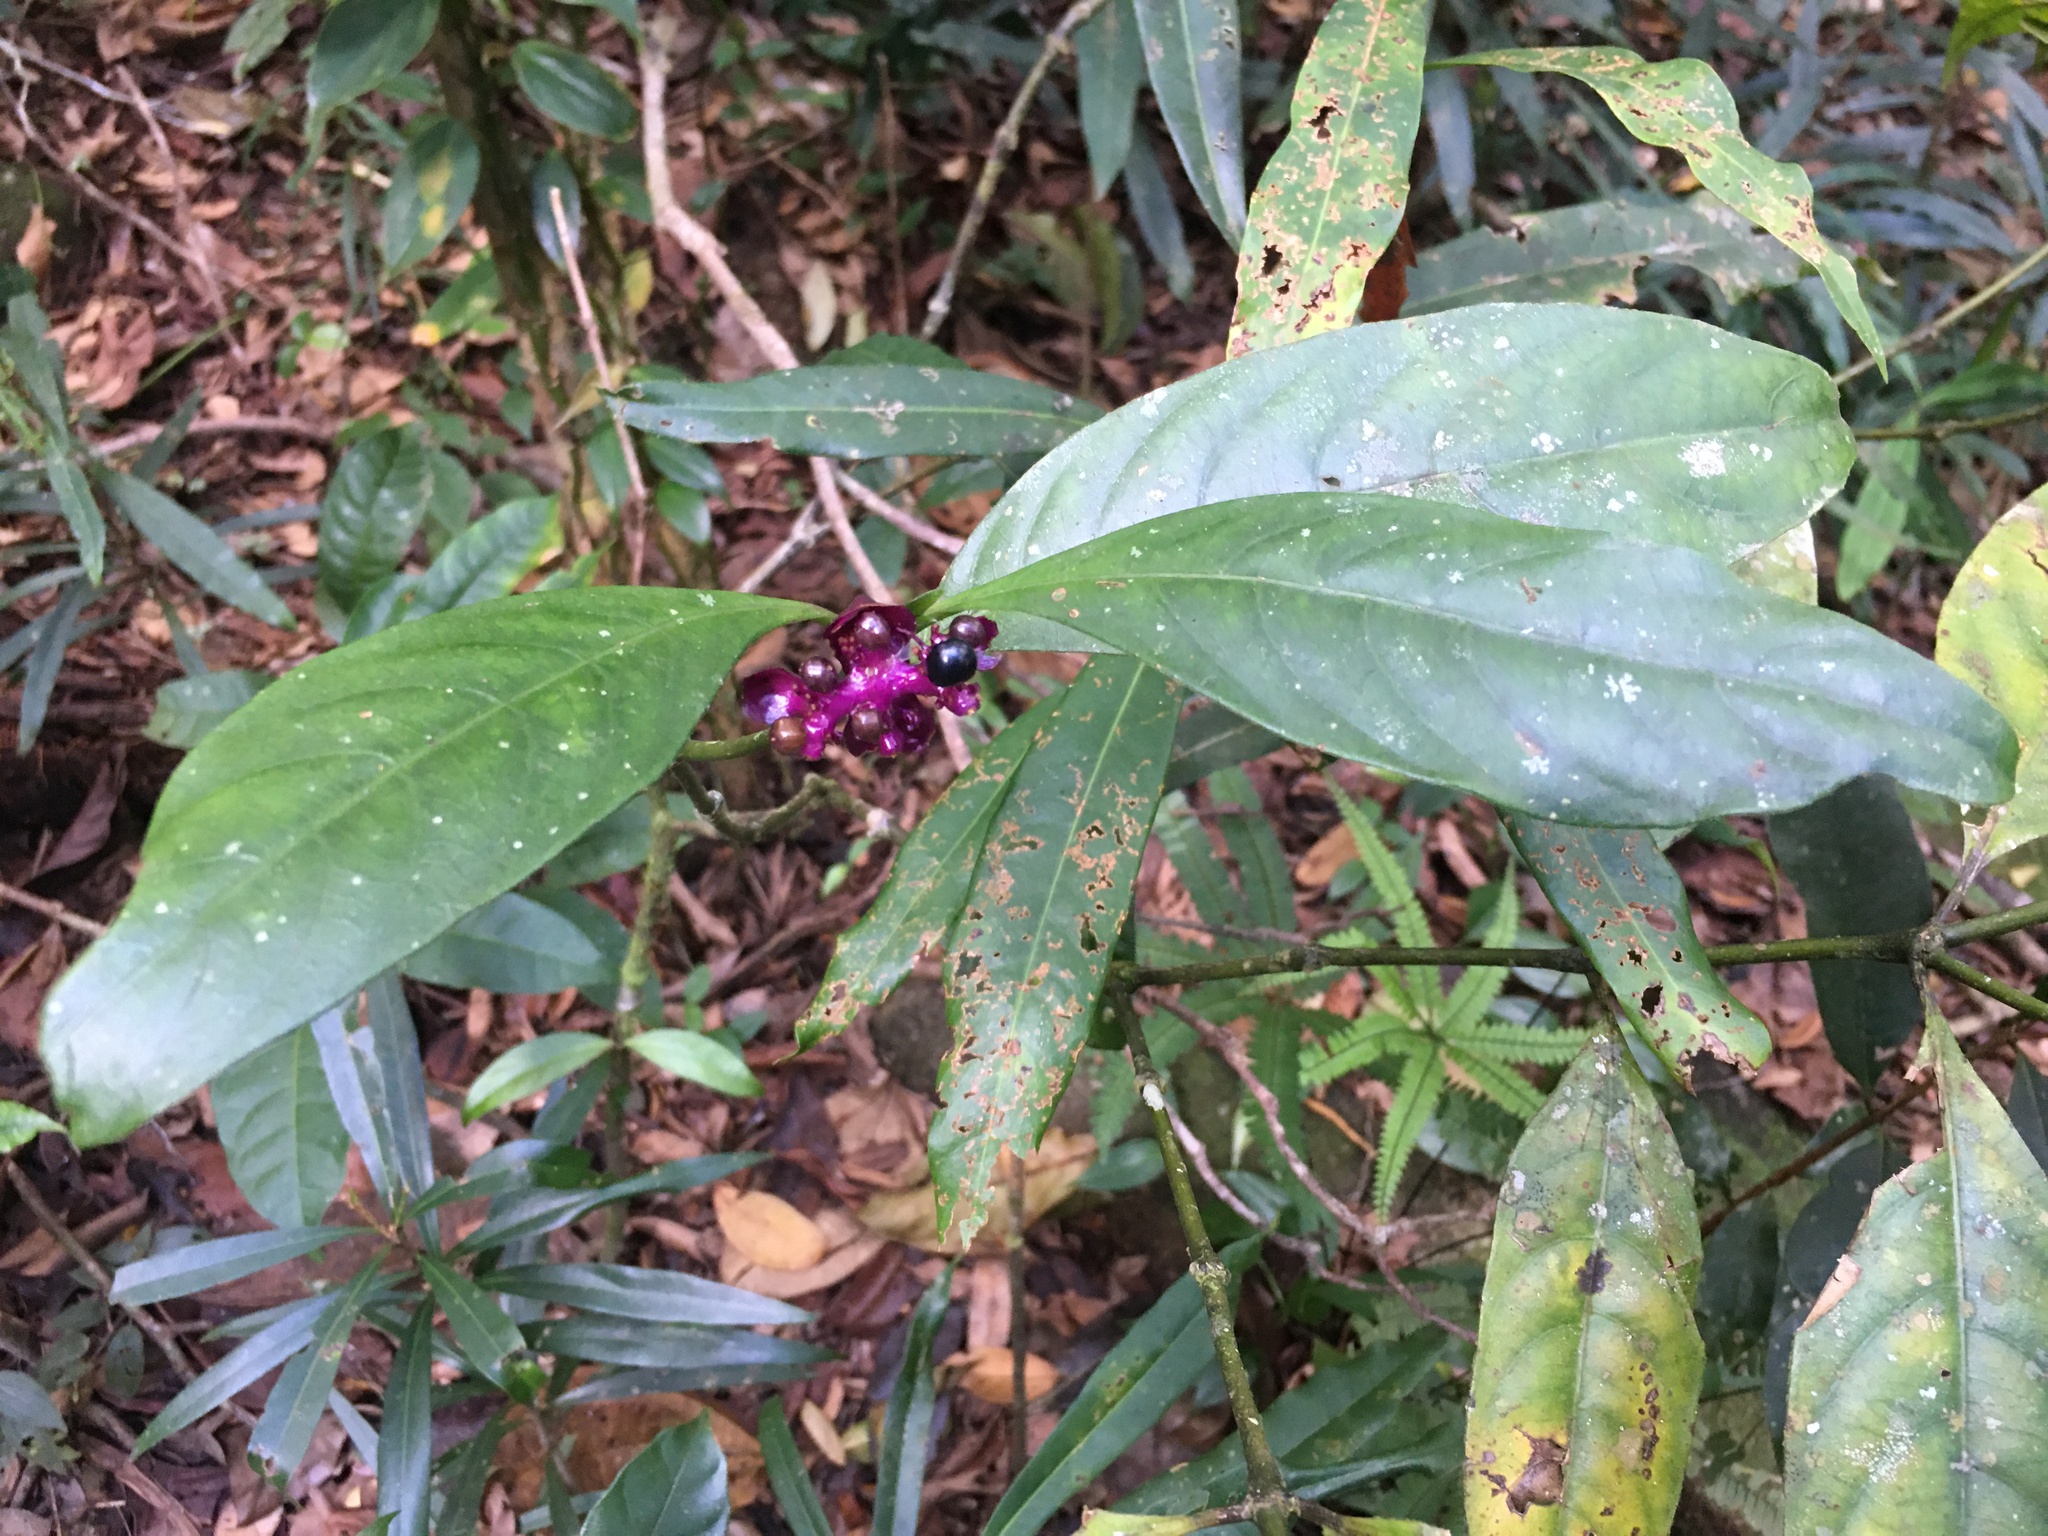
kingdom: Plantae
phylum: Tracheophyta
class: Magnoliopsida
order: Gentianales
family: Rubiaceae
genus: Palicourea
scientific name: Palicourea dichotoma
